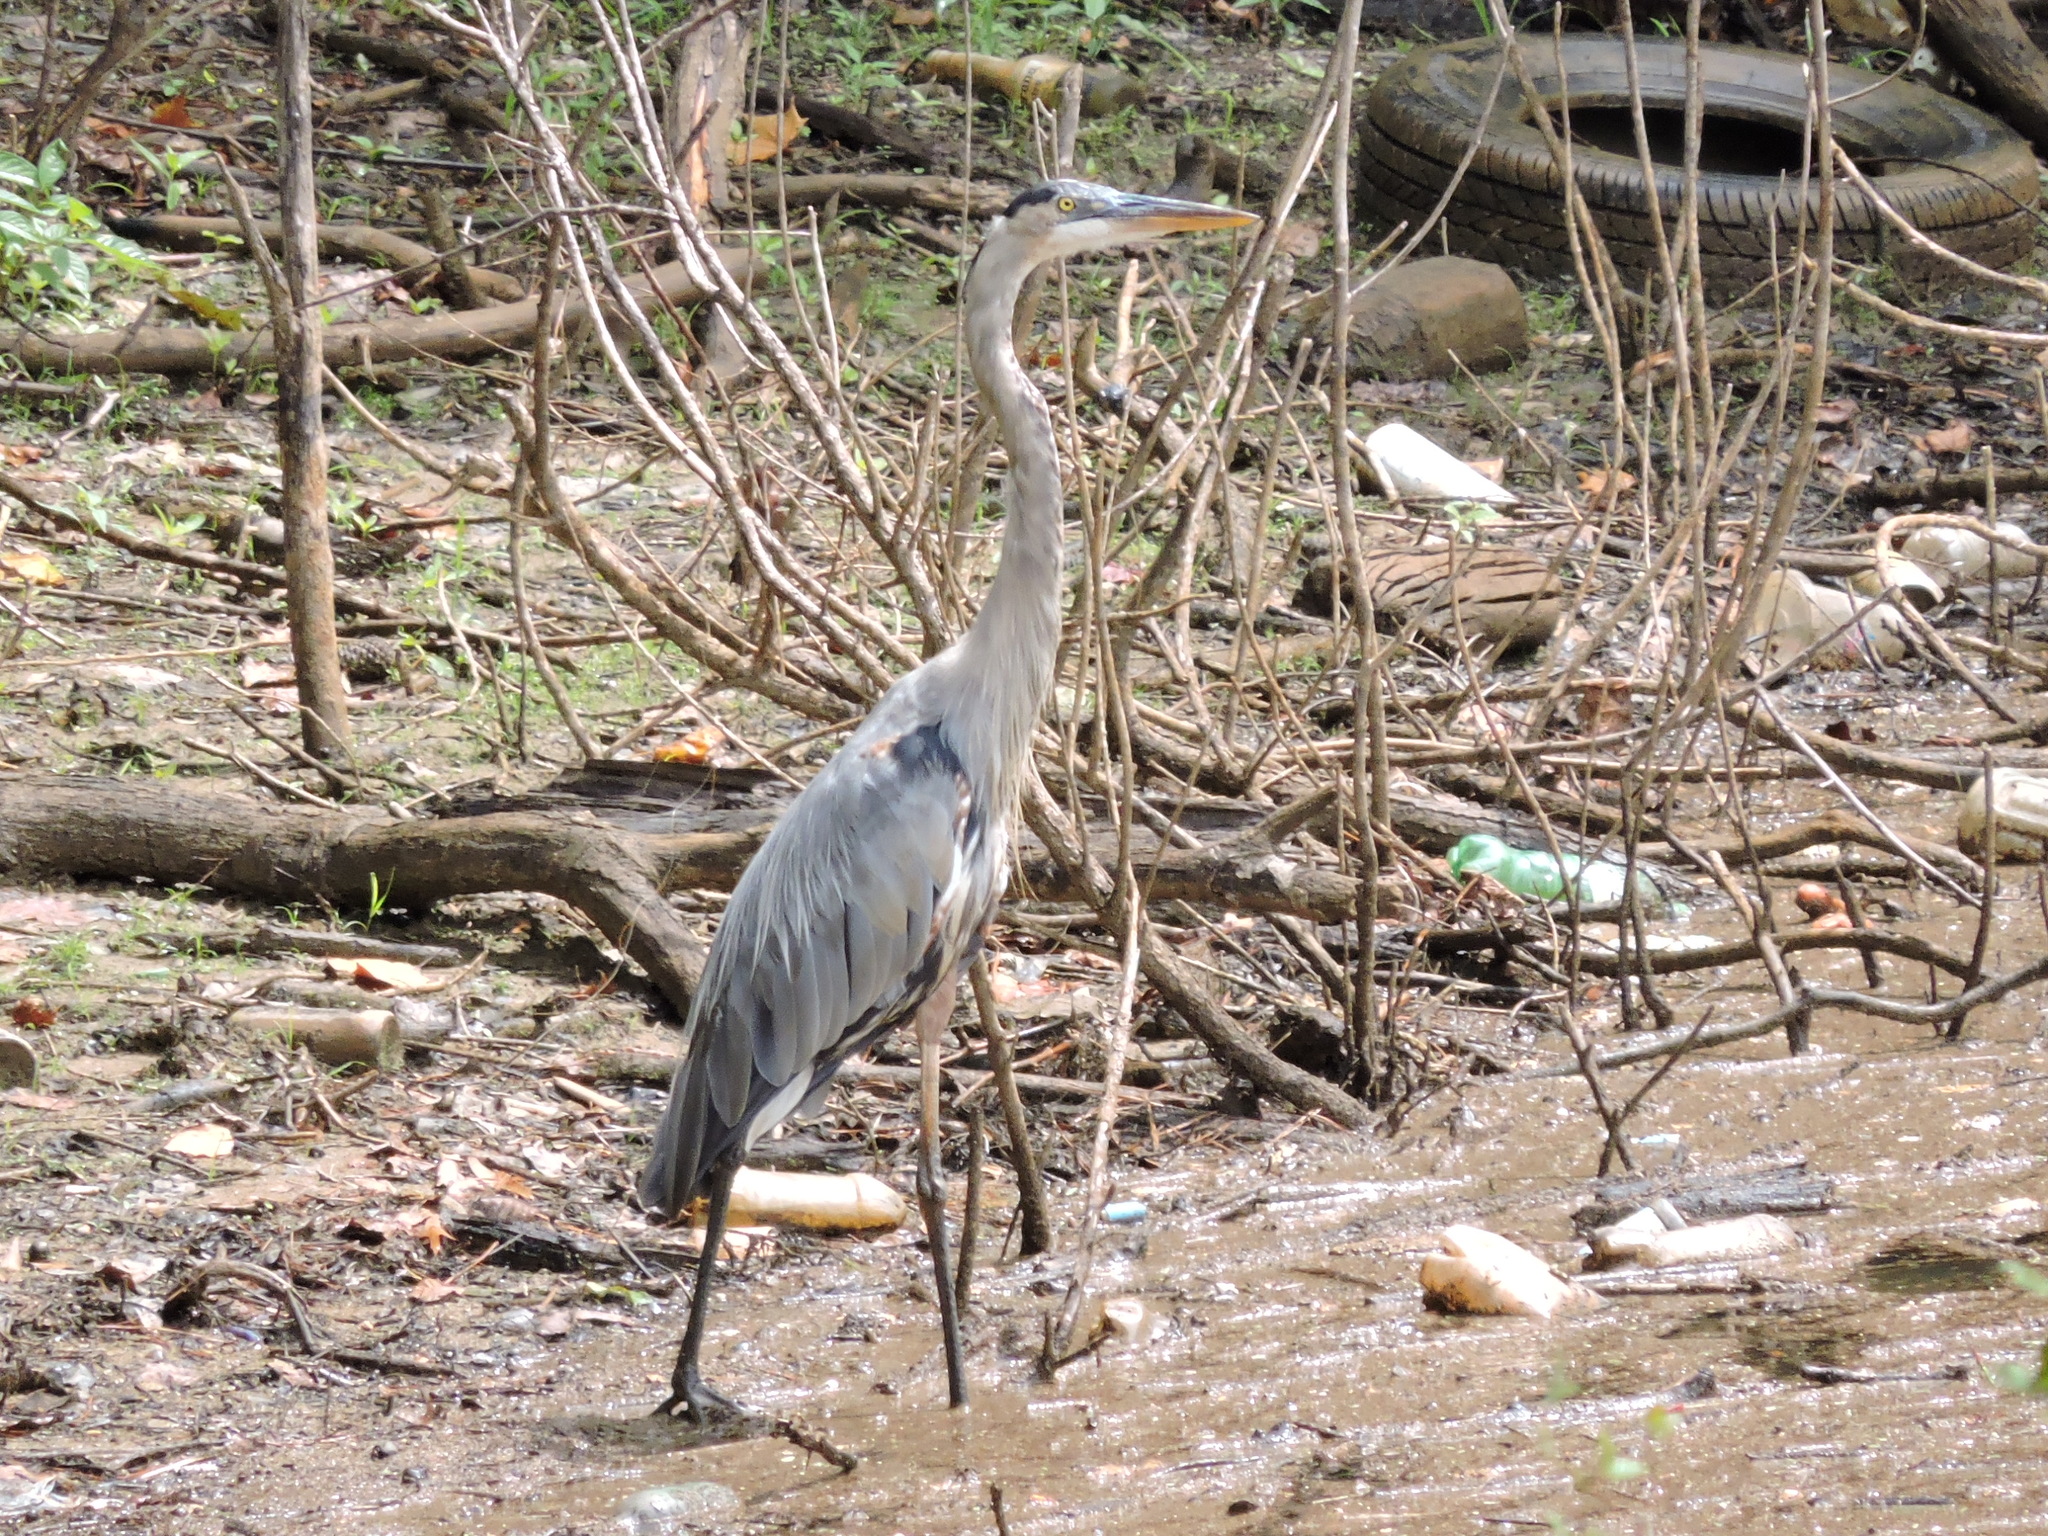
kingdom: Animalia
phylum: Chordata
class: Aves
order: Pelecaniformes
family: Ardeidae
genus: Ardea
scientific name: Ardea herodias
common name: Great blue heron
